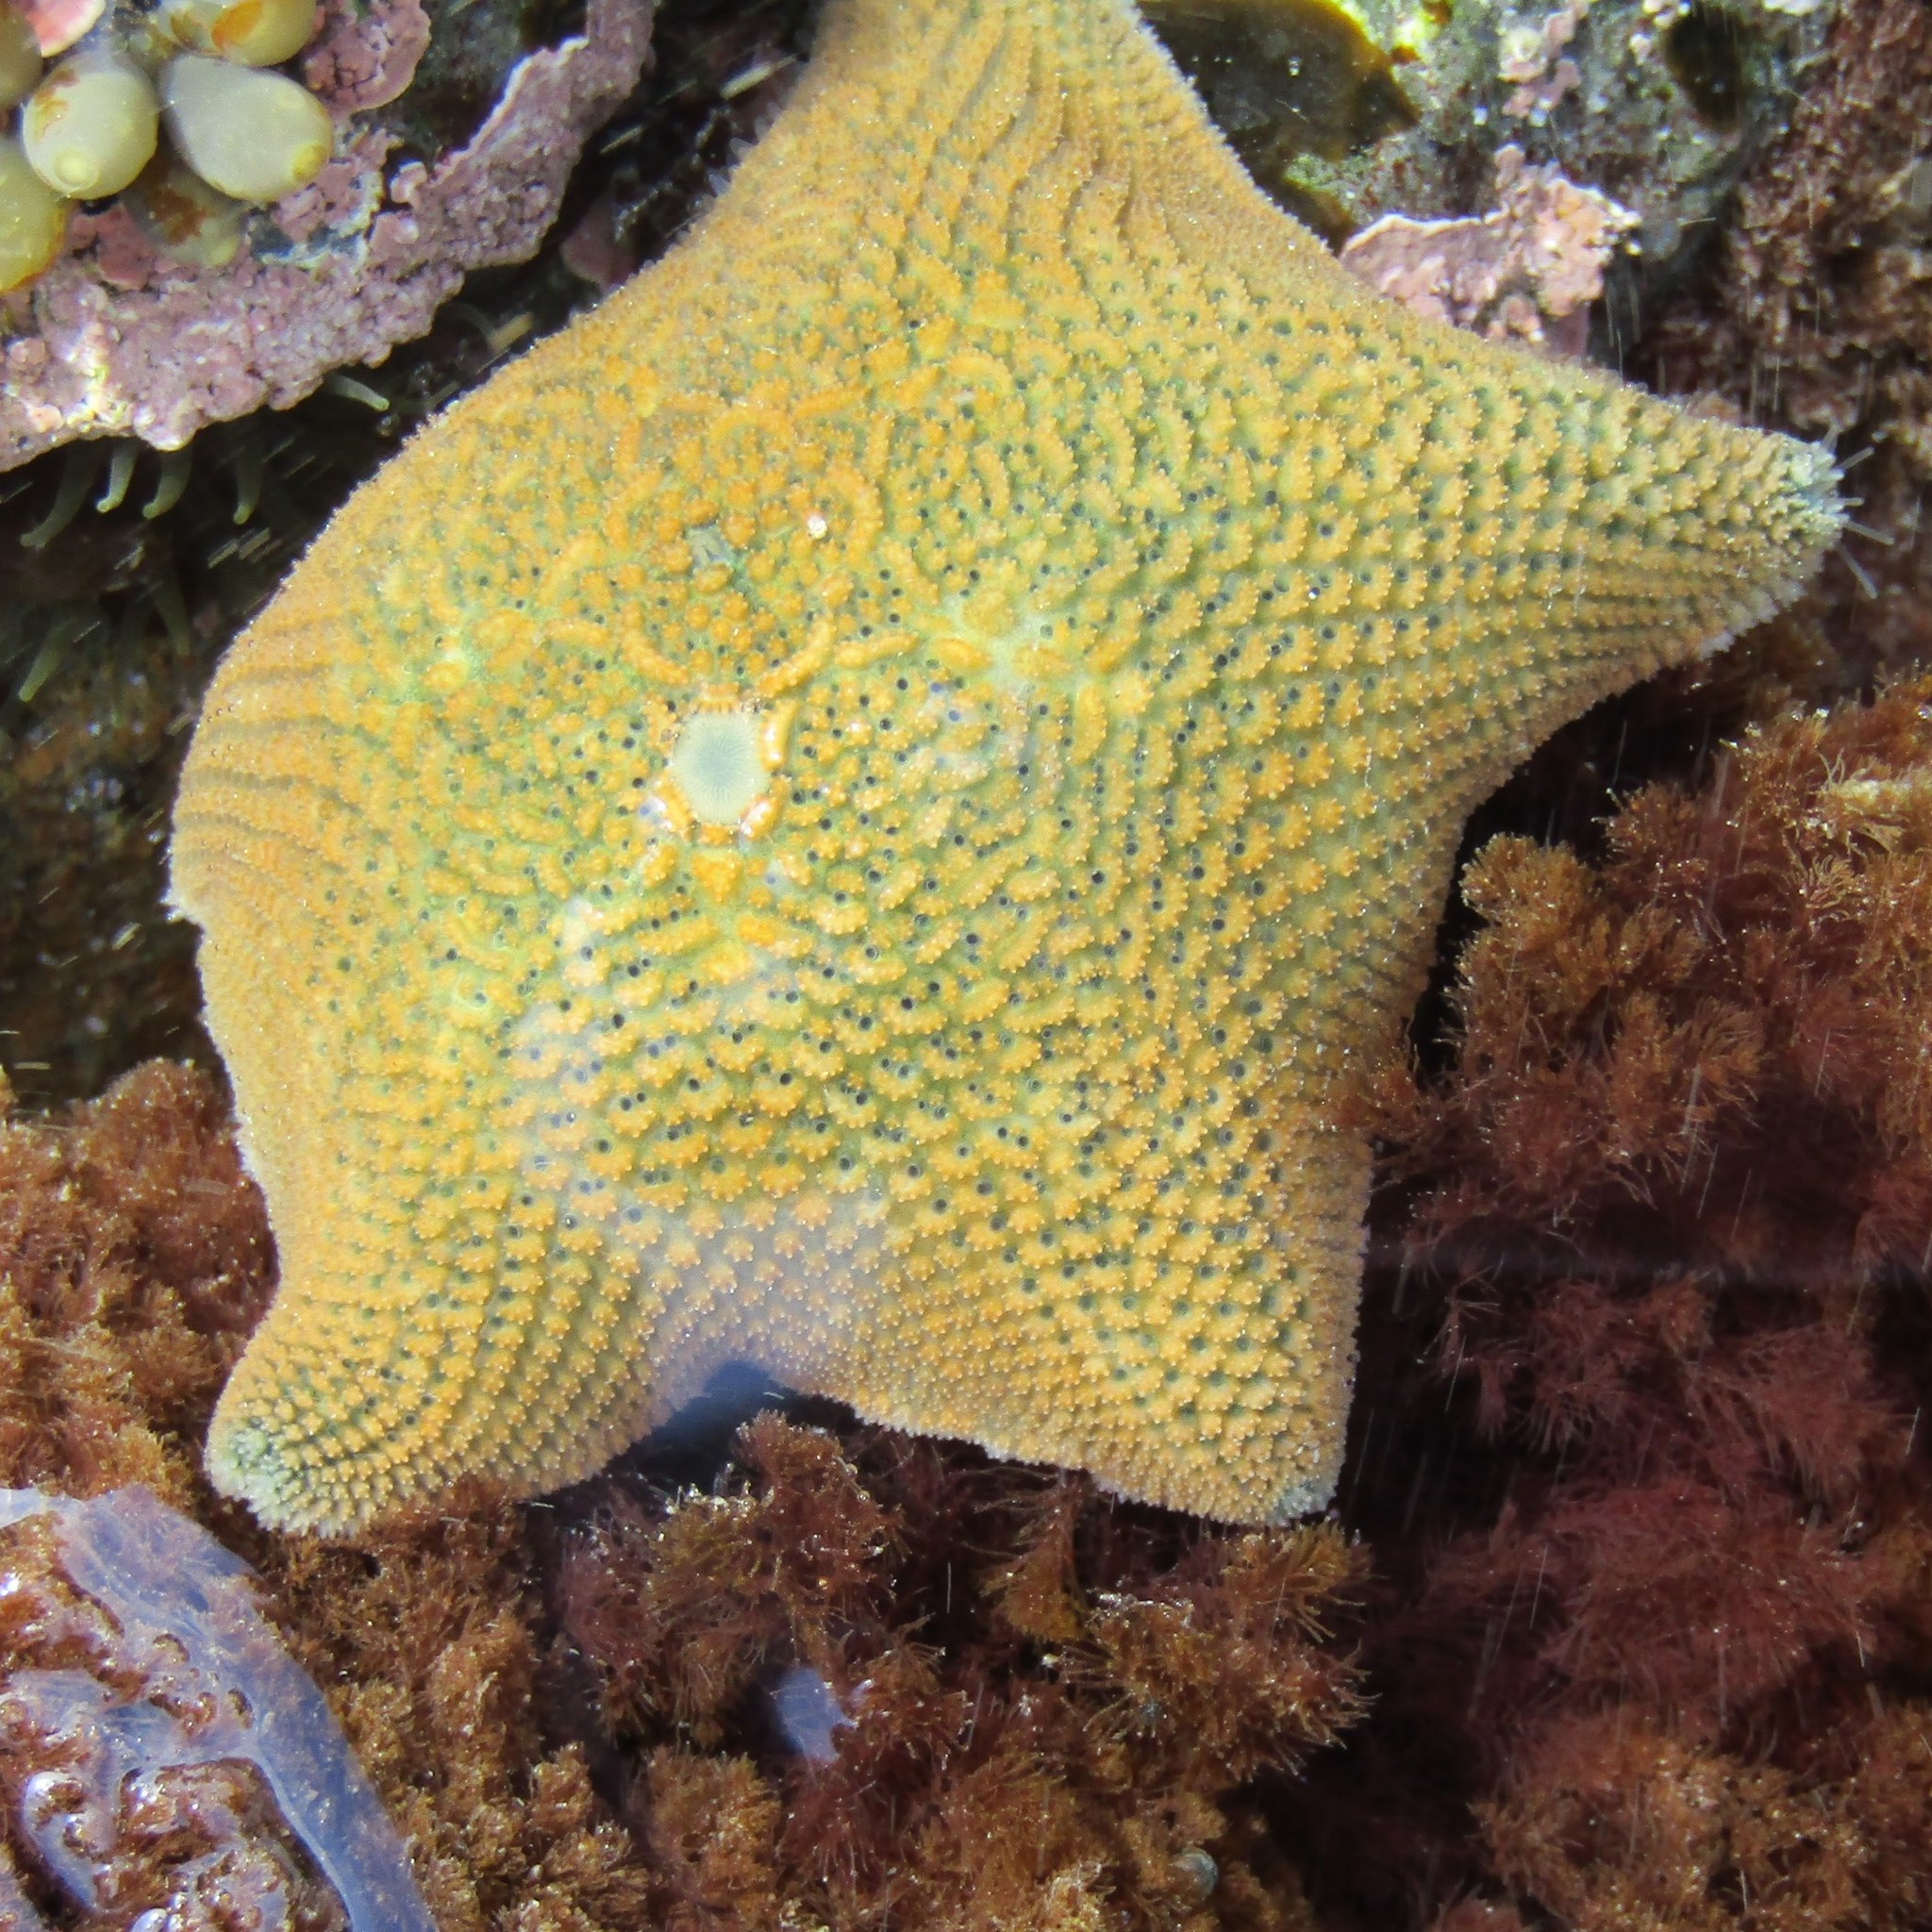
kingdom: Animalia
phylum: Echinodermata
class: Asteroidea
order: Valvatida
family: Asterinidae
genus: Patiriella
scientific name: Patiriella regularis
